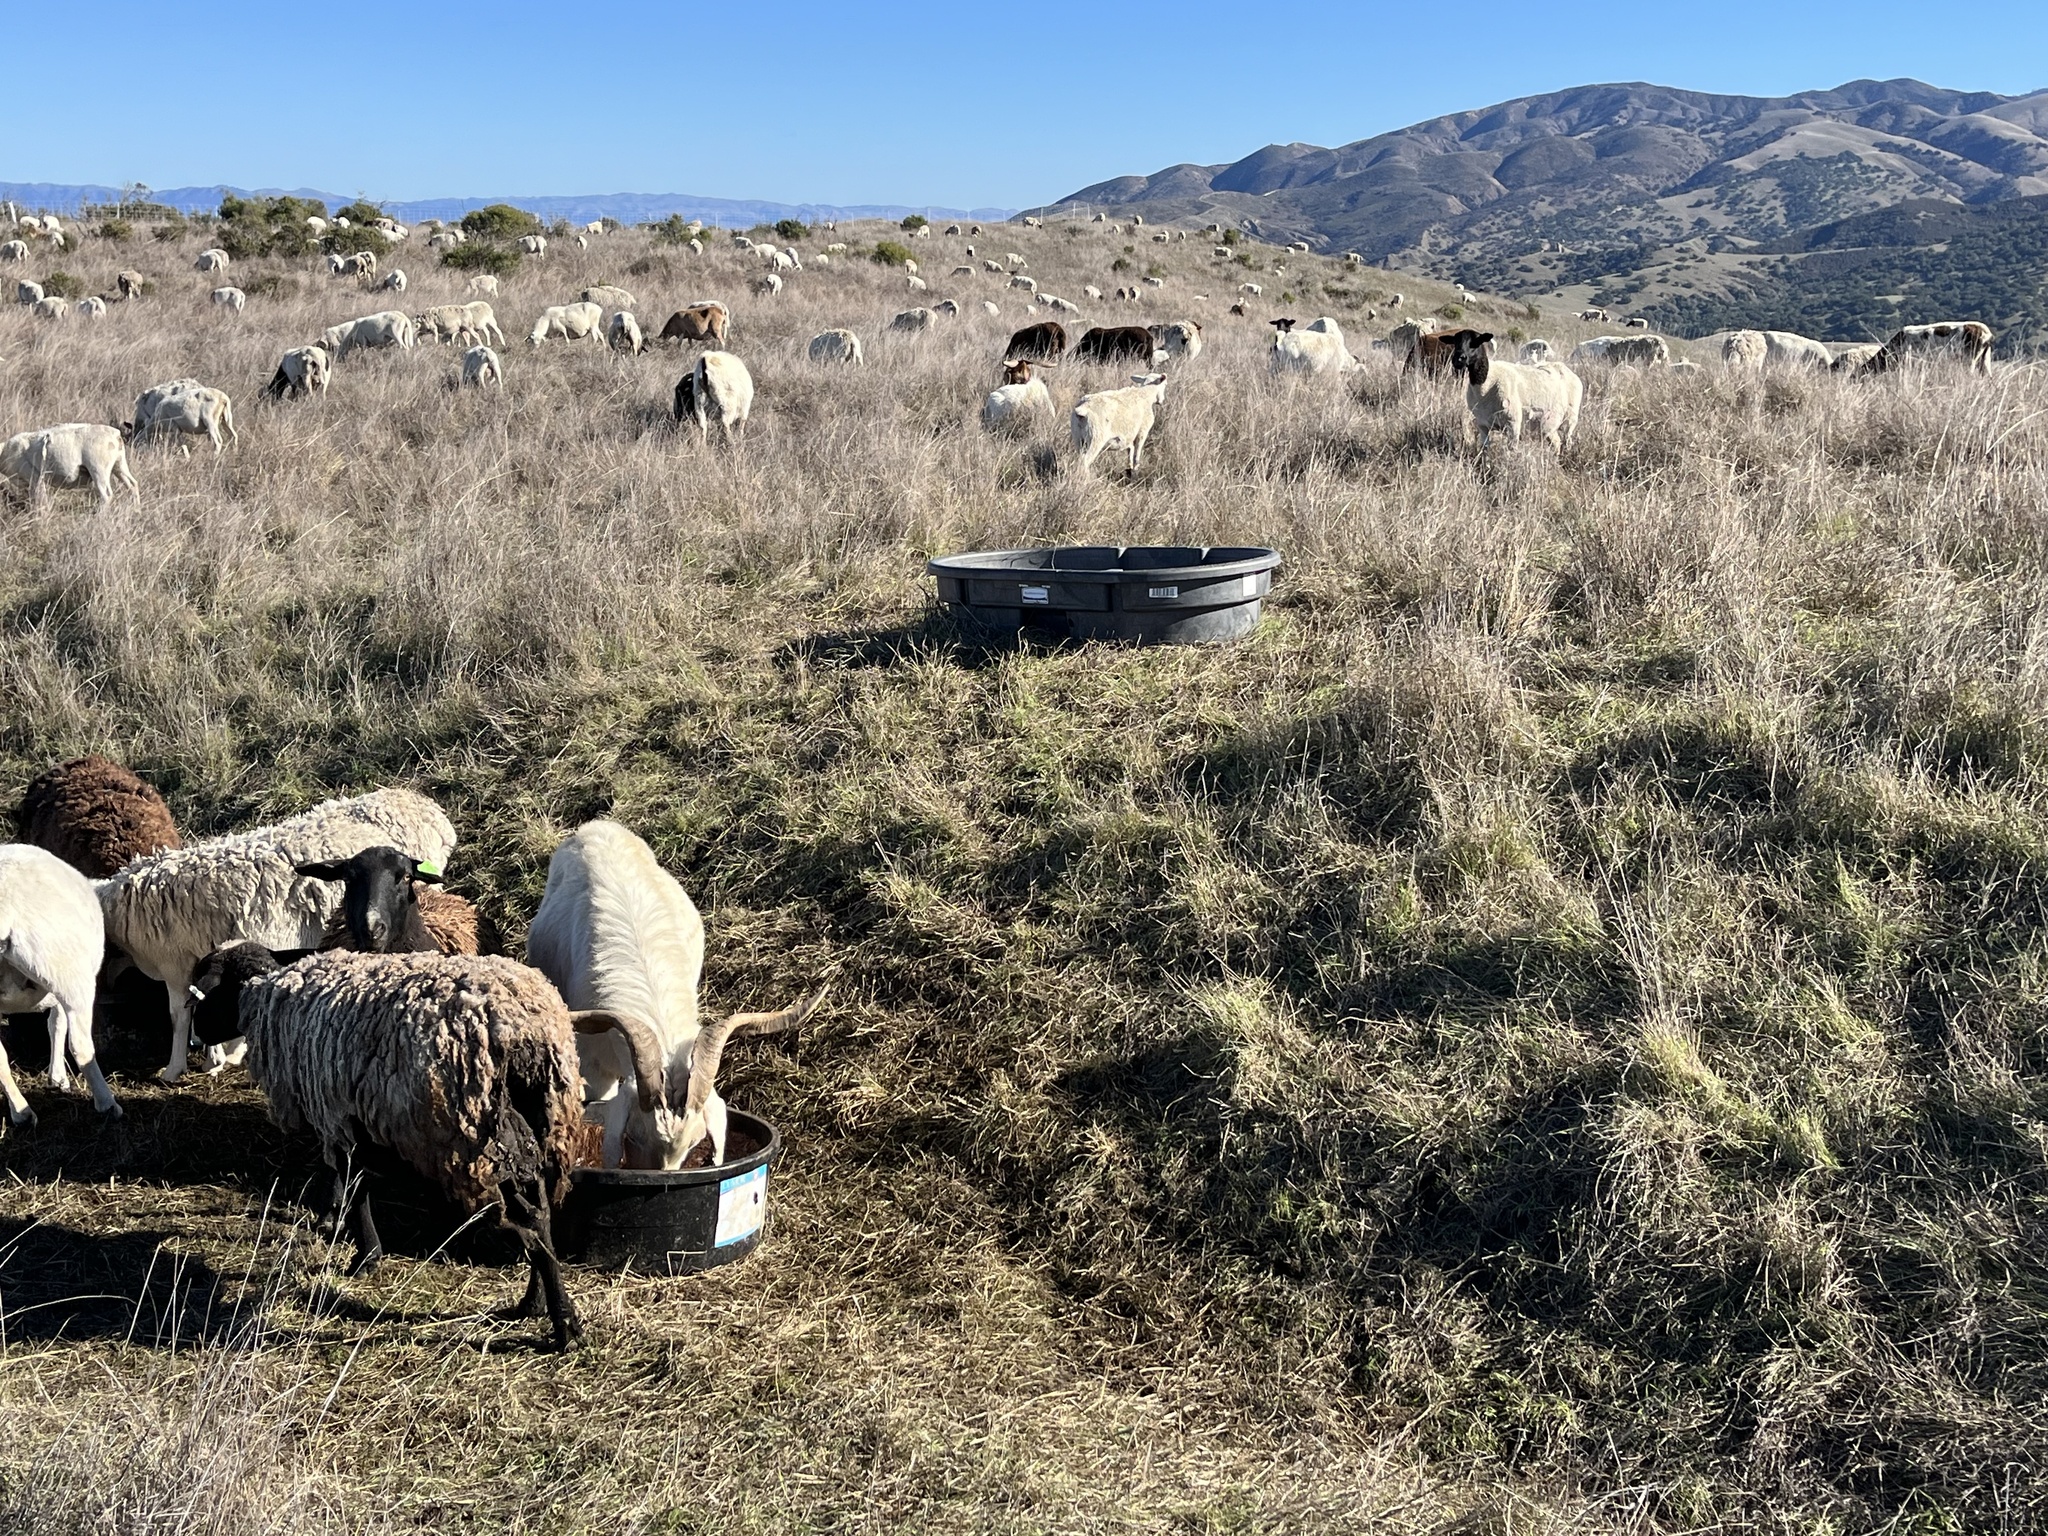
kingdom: Animalia
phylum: Chordata
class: Mammalia
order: Artiodactyla
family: Bovidae
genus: Ovis
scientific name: Ovis aries
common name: Domestic sheep
